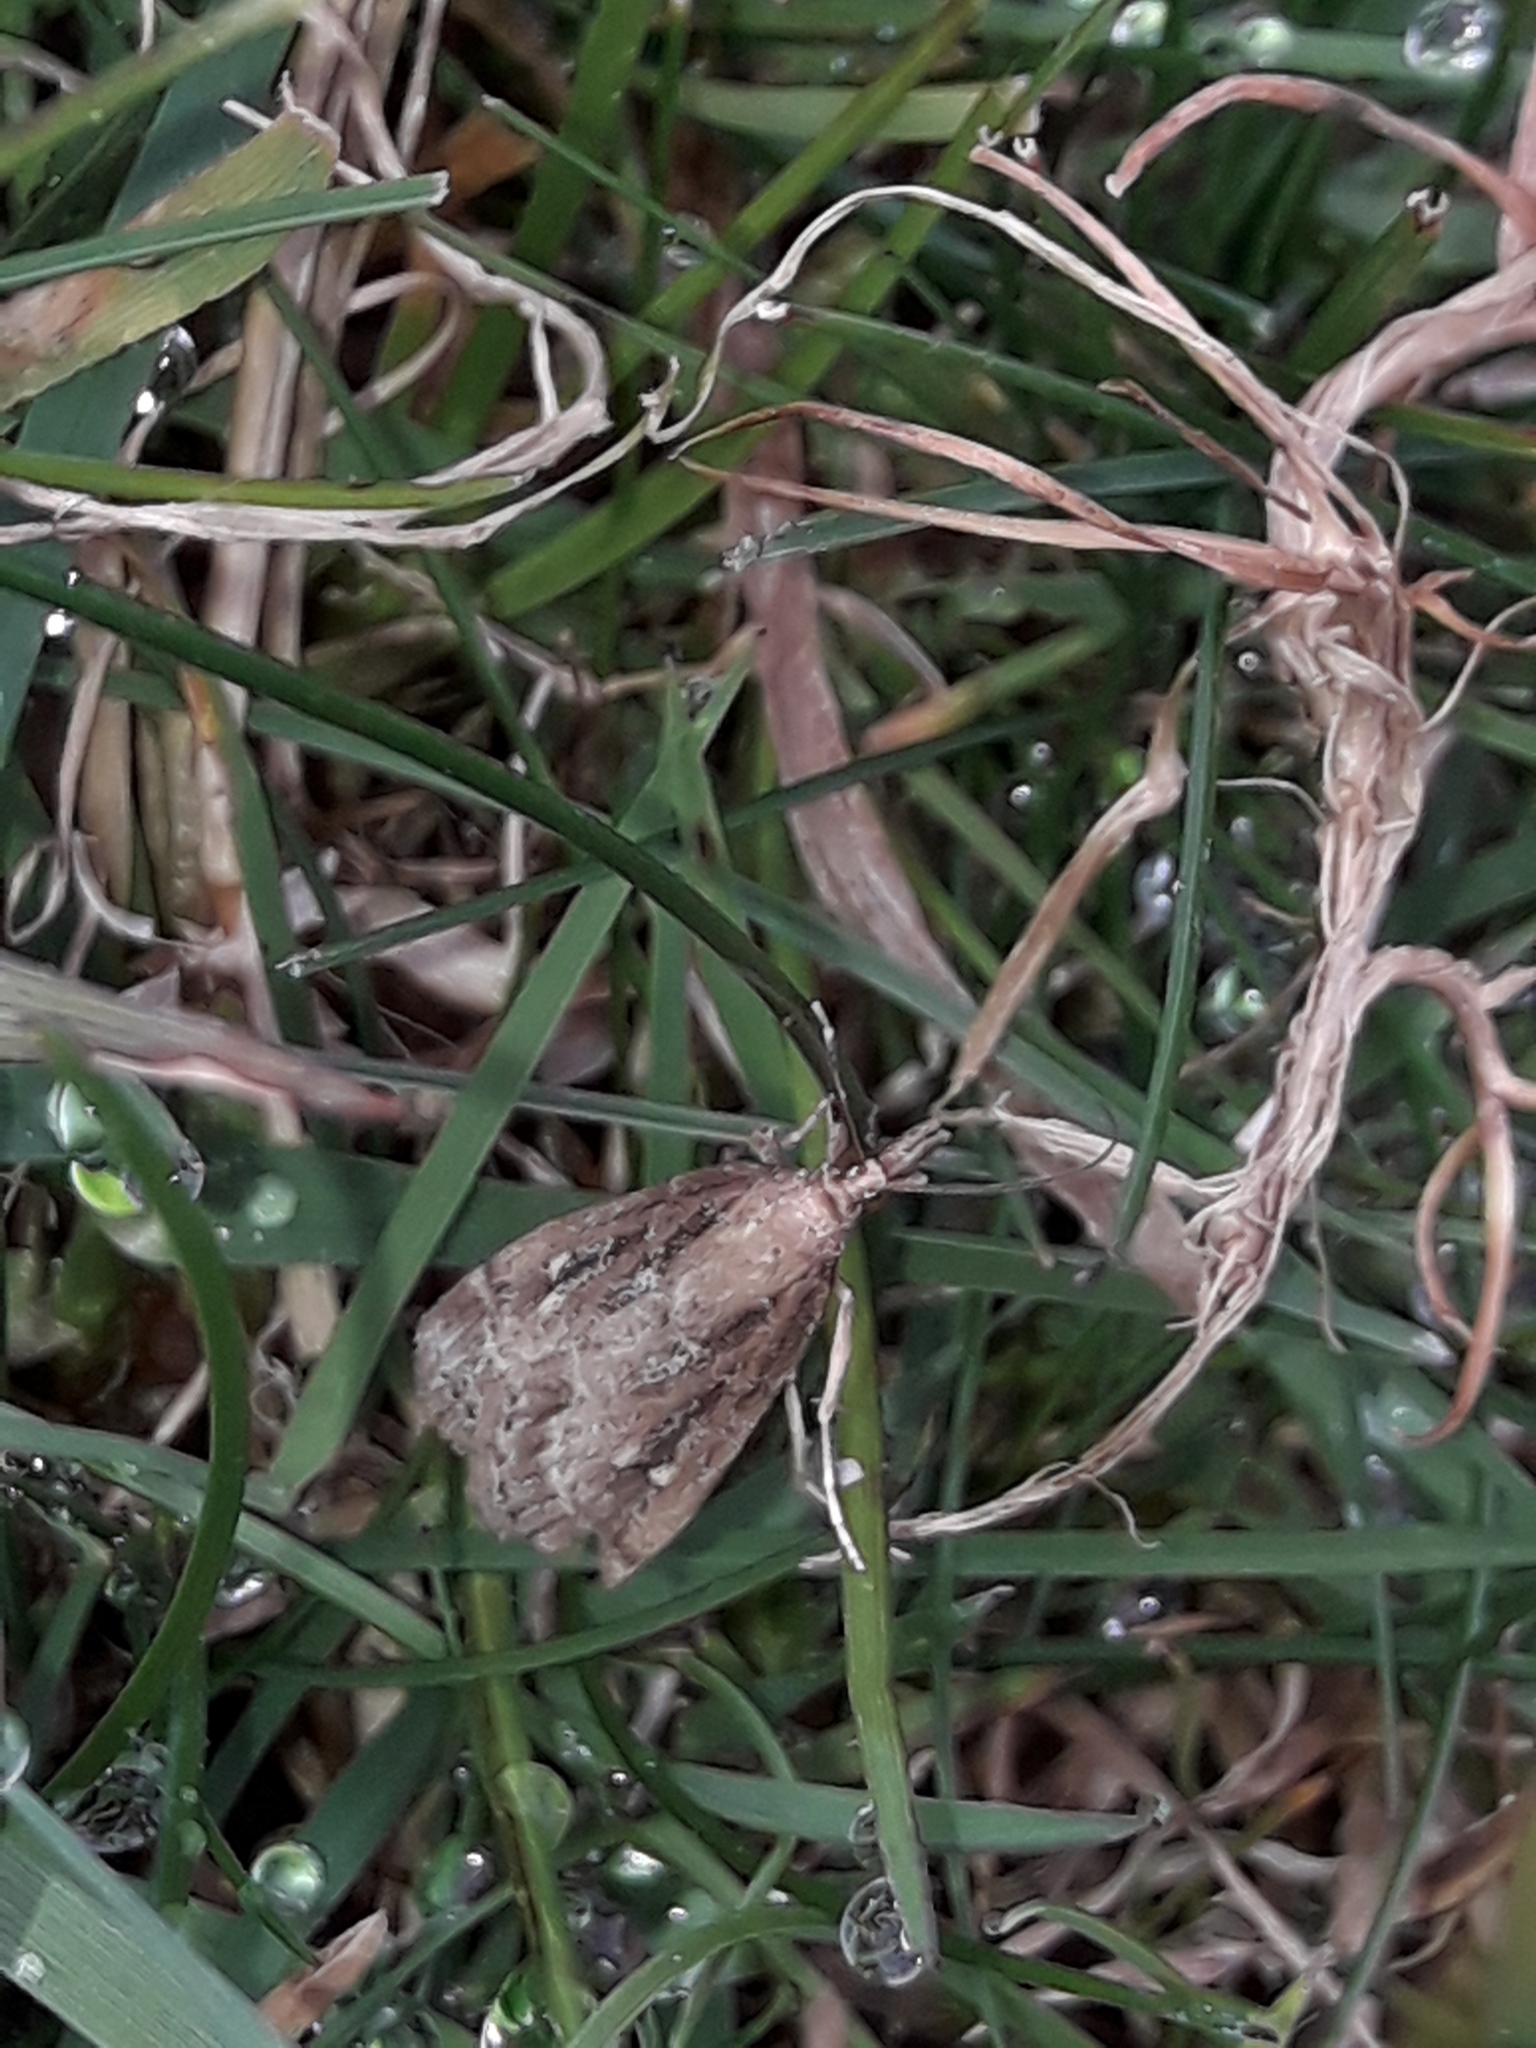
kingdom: Animalia
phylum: Arthropoda
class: Insecta
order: Lepidoptera
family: Crambidae
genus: Eudonia
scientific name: Eudonia octophora
